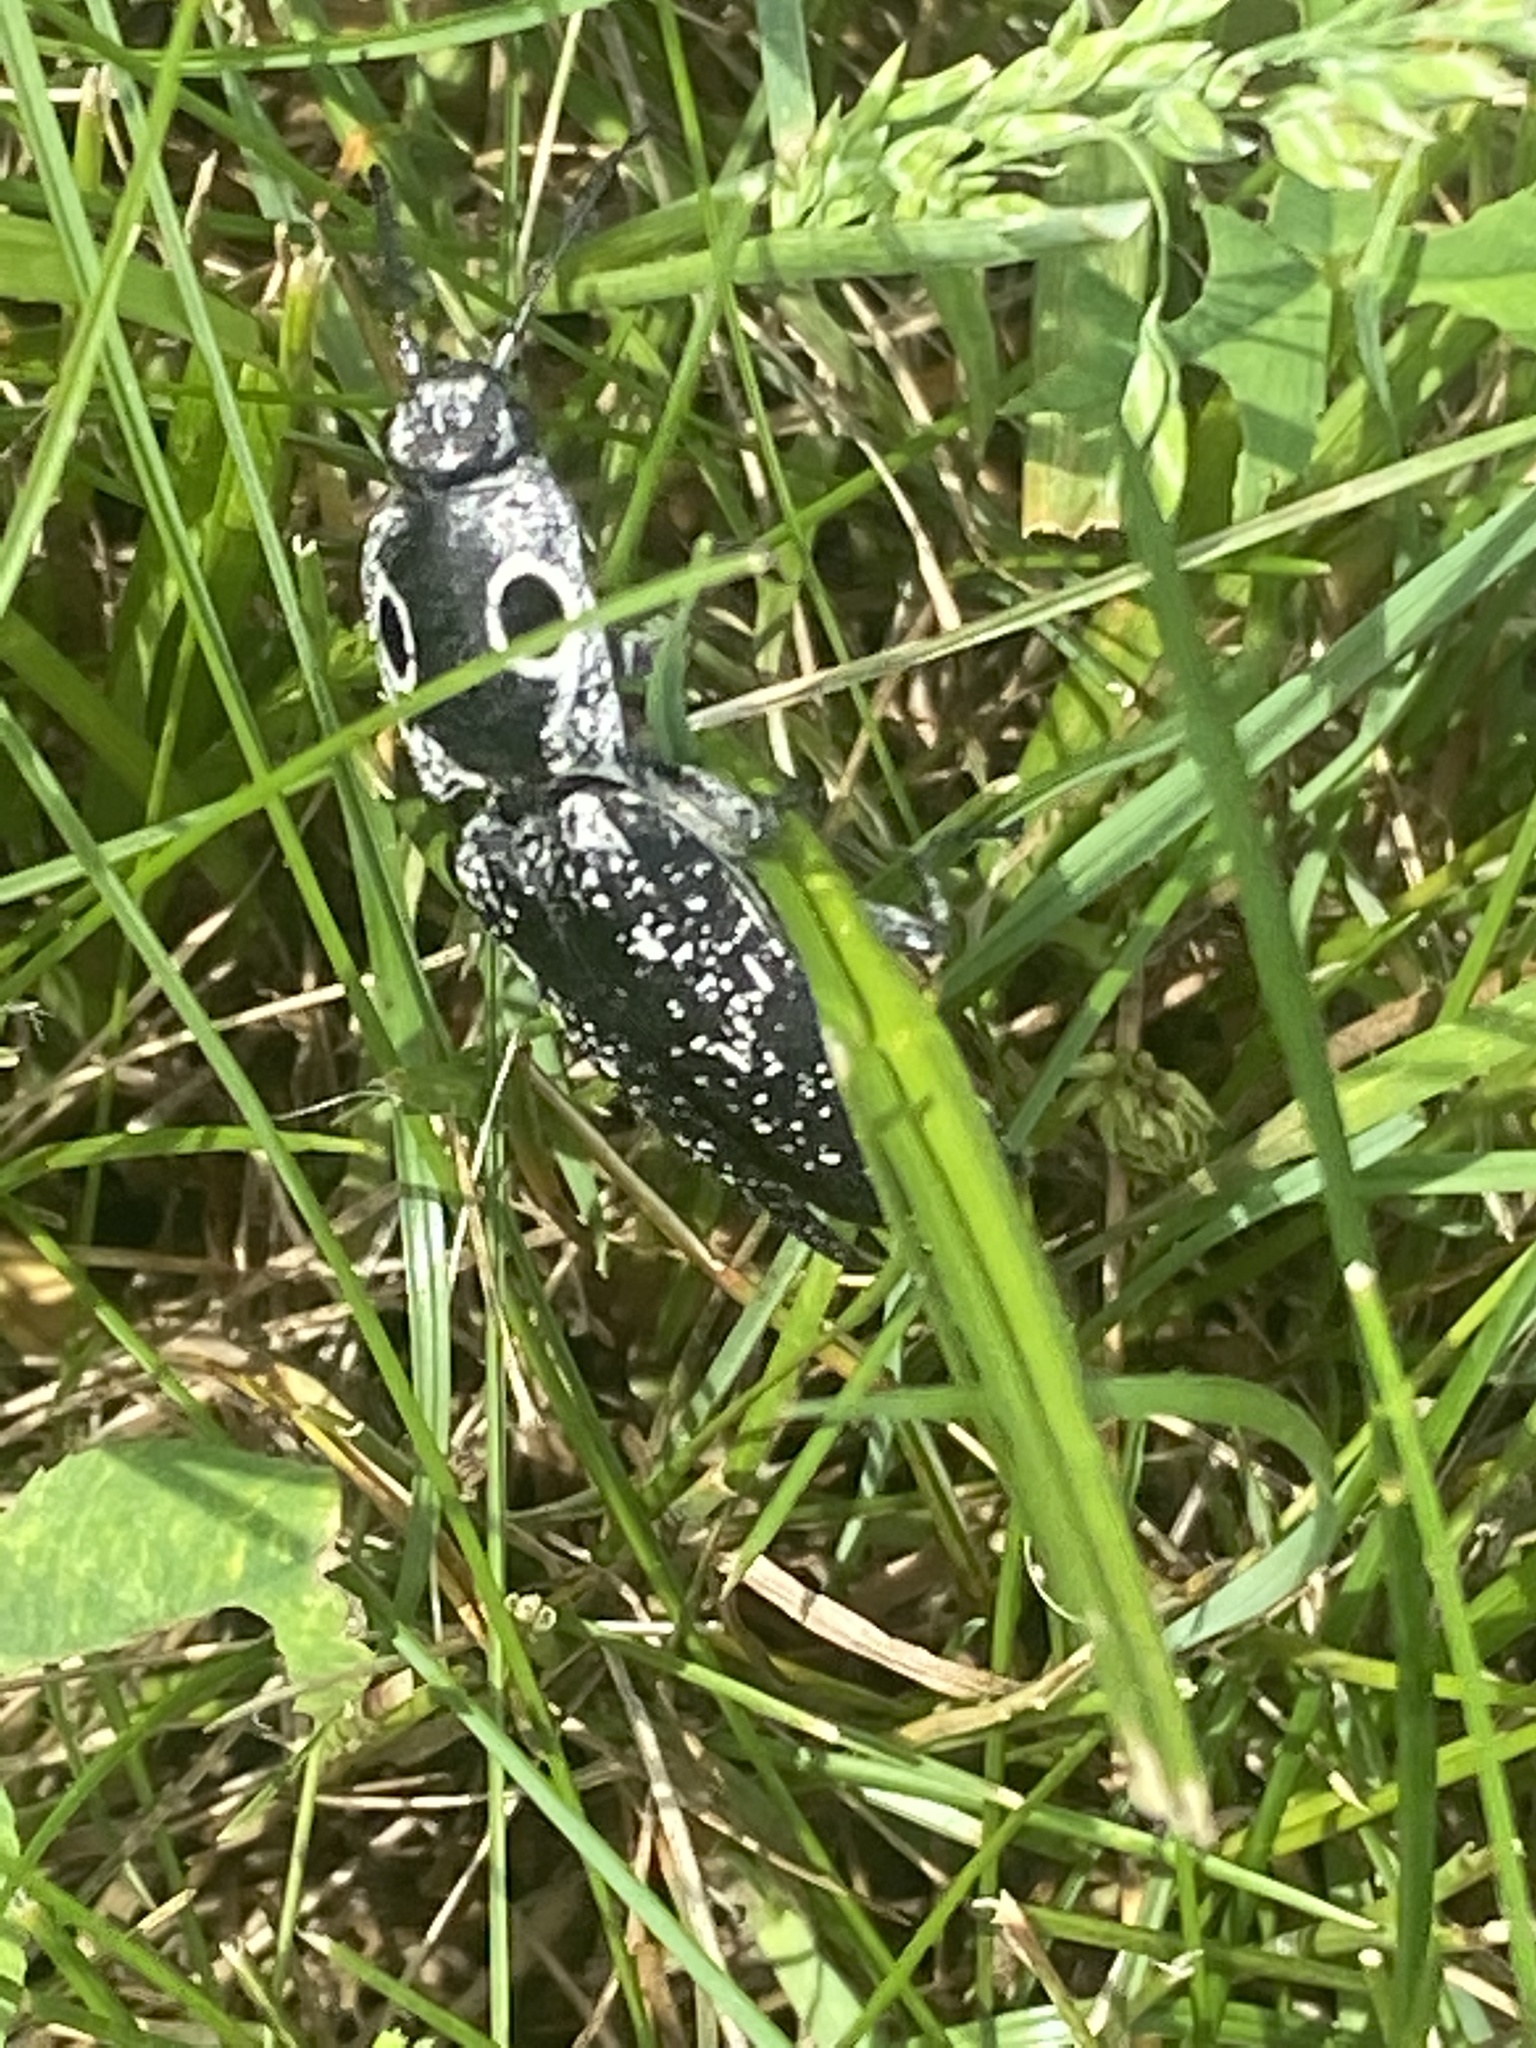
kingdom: Animalia
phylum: Arthropoda
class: Insecta
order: Coleoptera
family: Elateridae
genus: Alaus
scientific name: Alaus oculatus
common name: Eastern eyed click beetle
